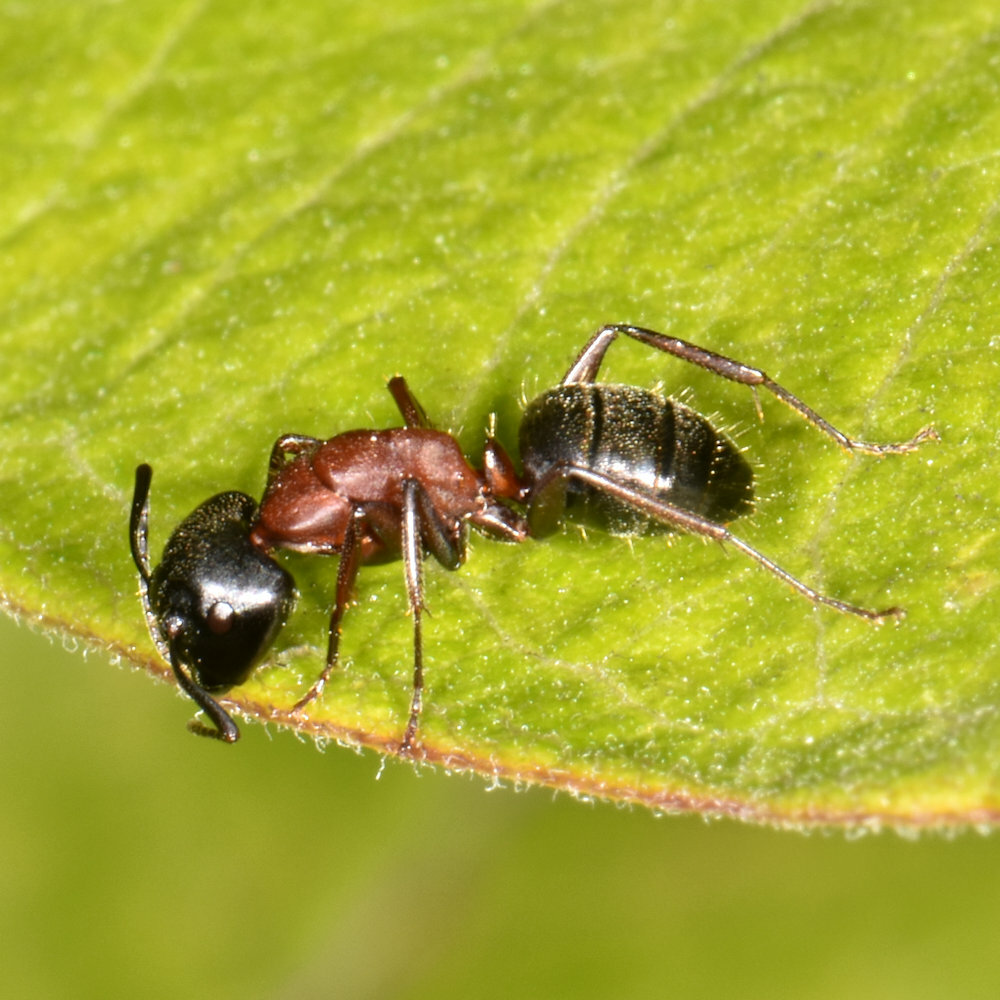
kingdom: Animalia
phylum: Arthropoda
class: Insecta
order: Hymenoptera
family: Formicidae
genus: Camponotus
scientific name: Camponotus novaeboracensis
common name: New york carpenter ant
